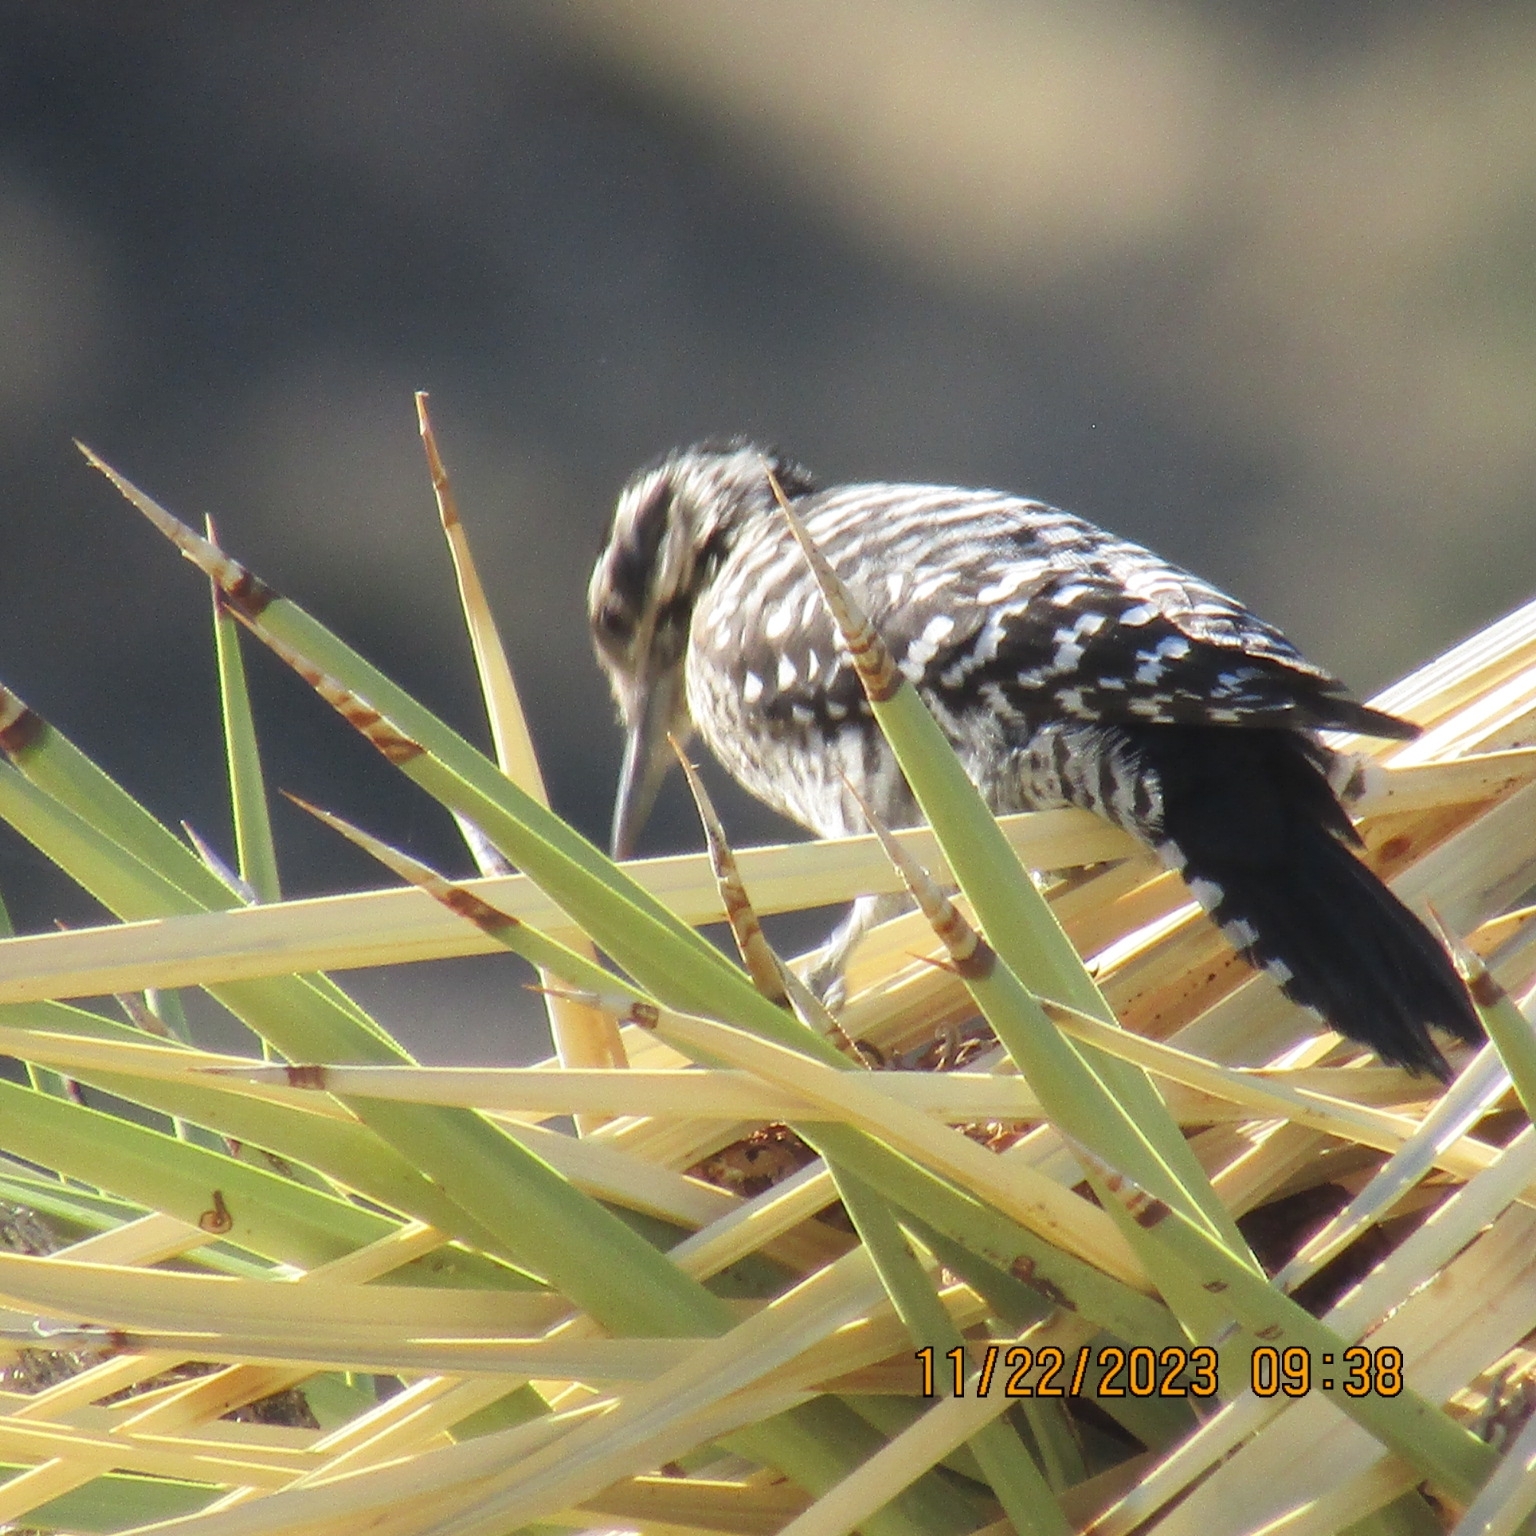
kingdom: Animalia
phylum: Chordata
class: Aves
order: Piciformes
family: Picidae
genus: Dryobates
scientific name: Dryobates scalaris
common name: Ladder-backed woodpecker
